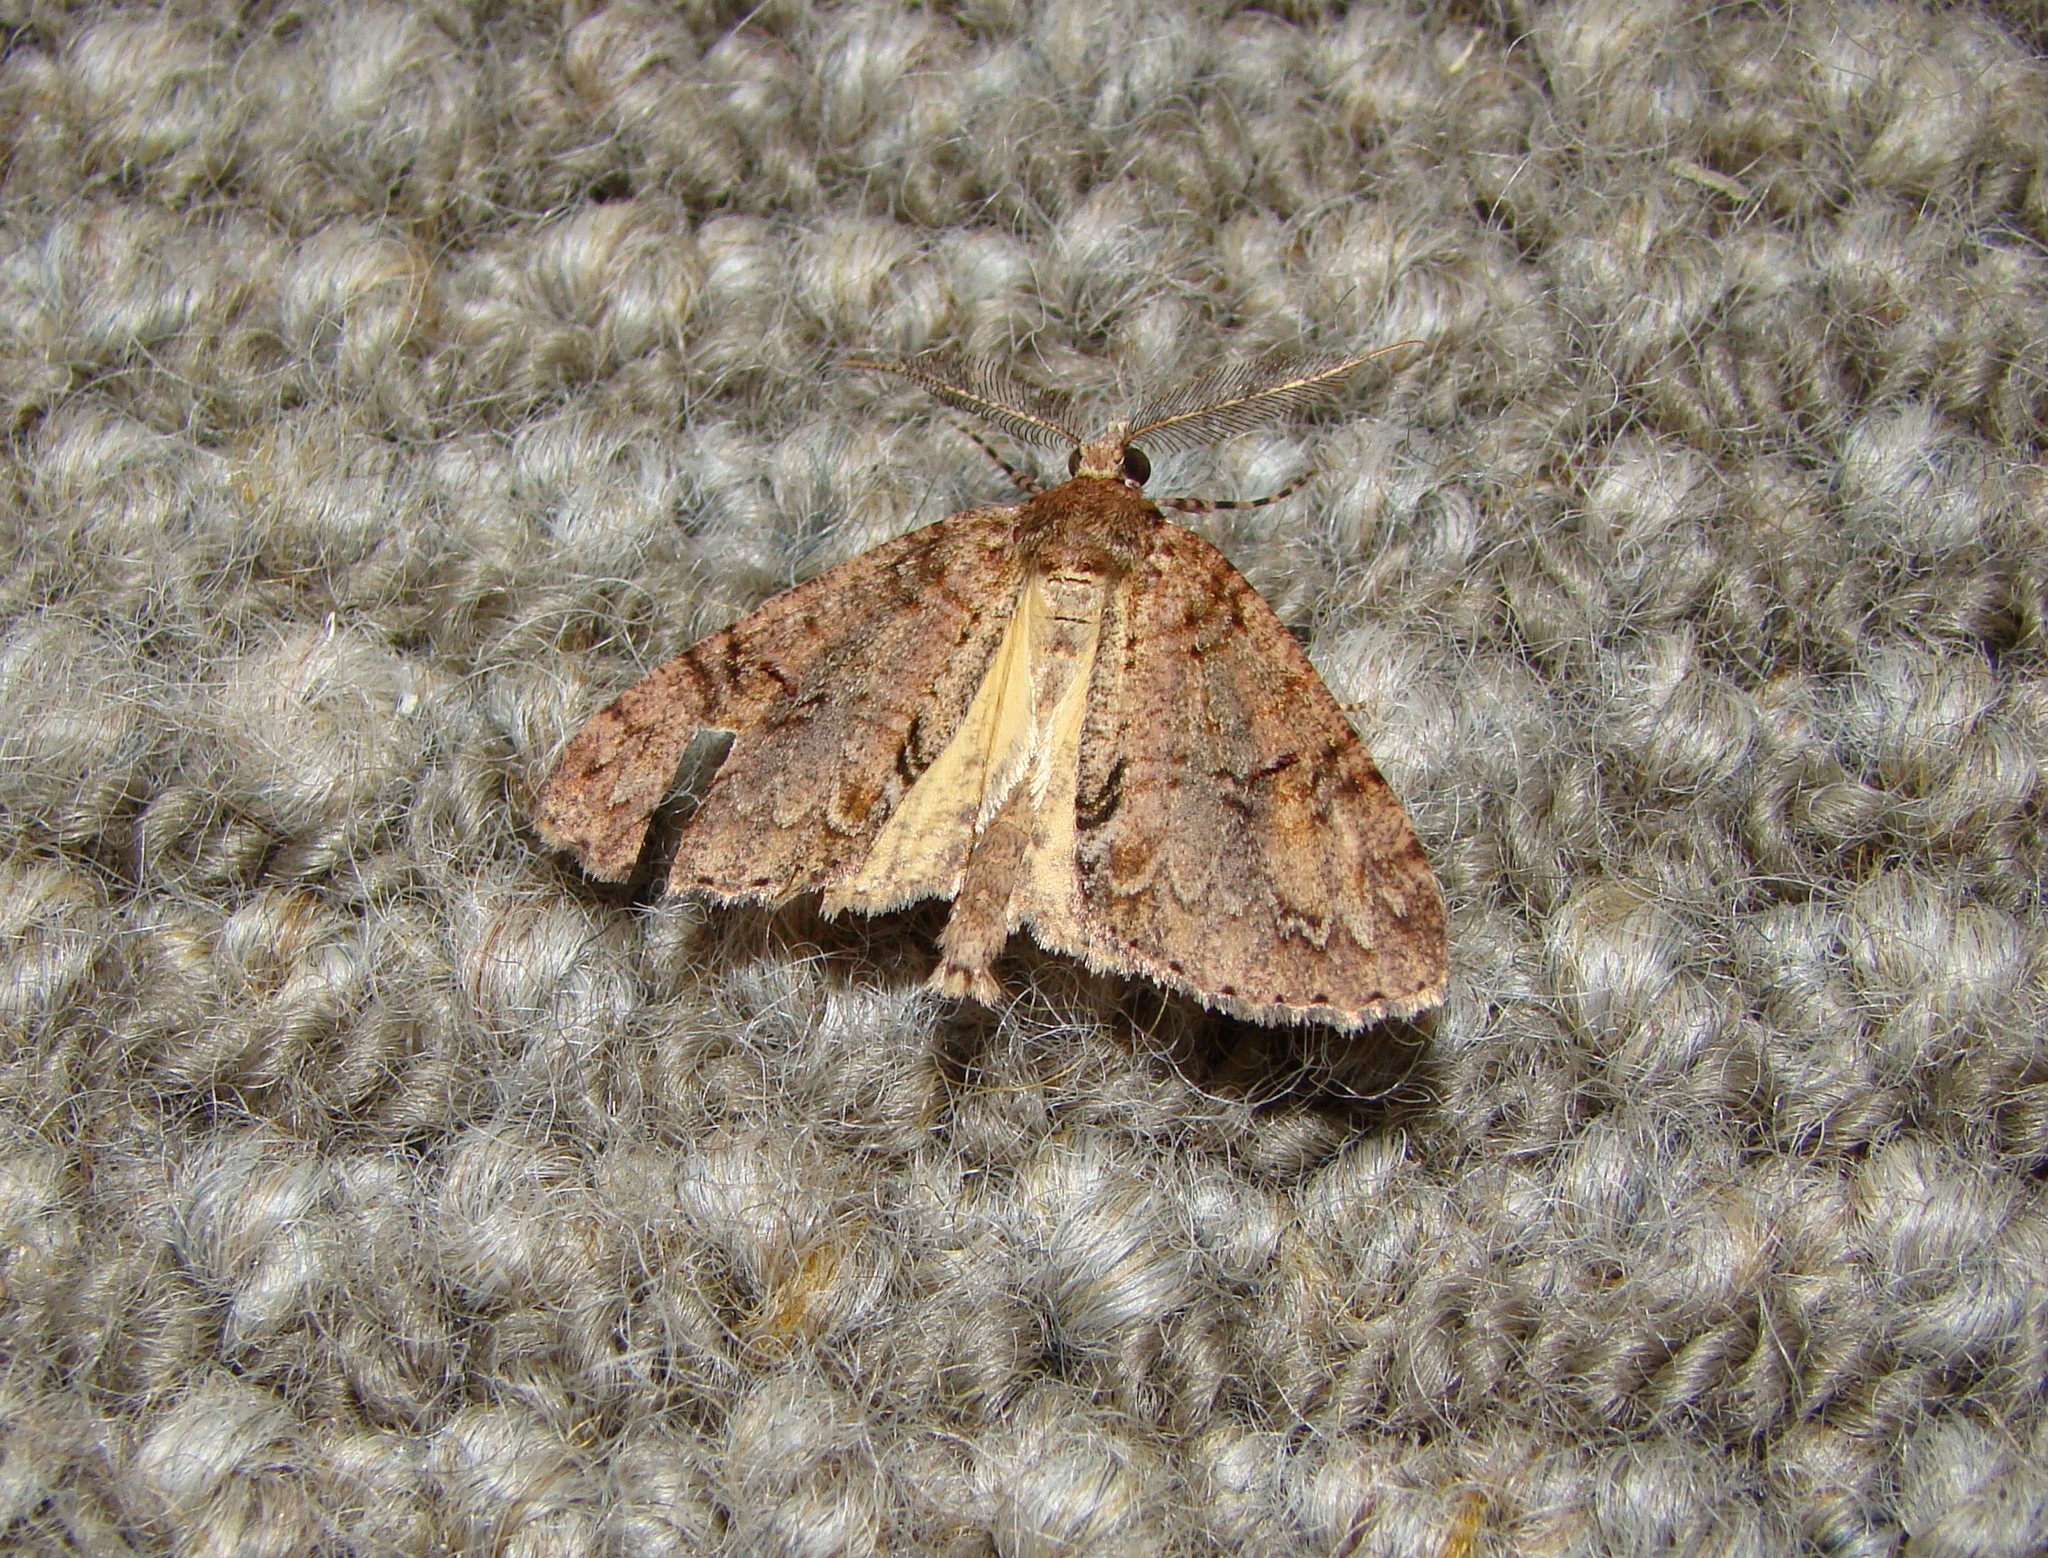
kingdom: Animalia
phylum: Arthropoda
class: Insecta
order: Lepidoptera
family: Geometridae
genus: Pseudocoremia
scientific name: Pseudocoremia suavis
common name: Common forest looper
